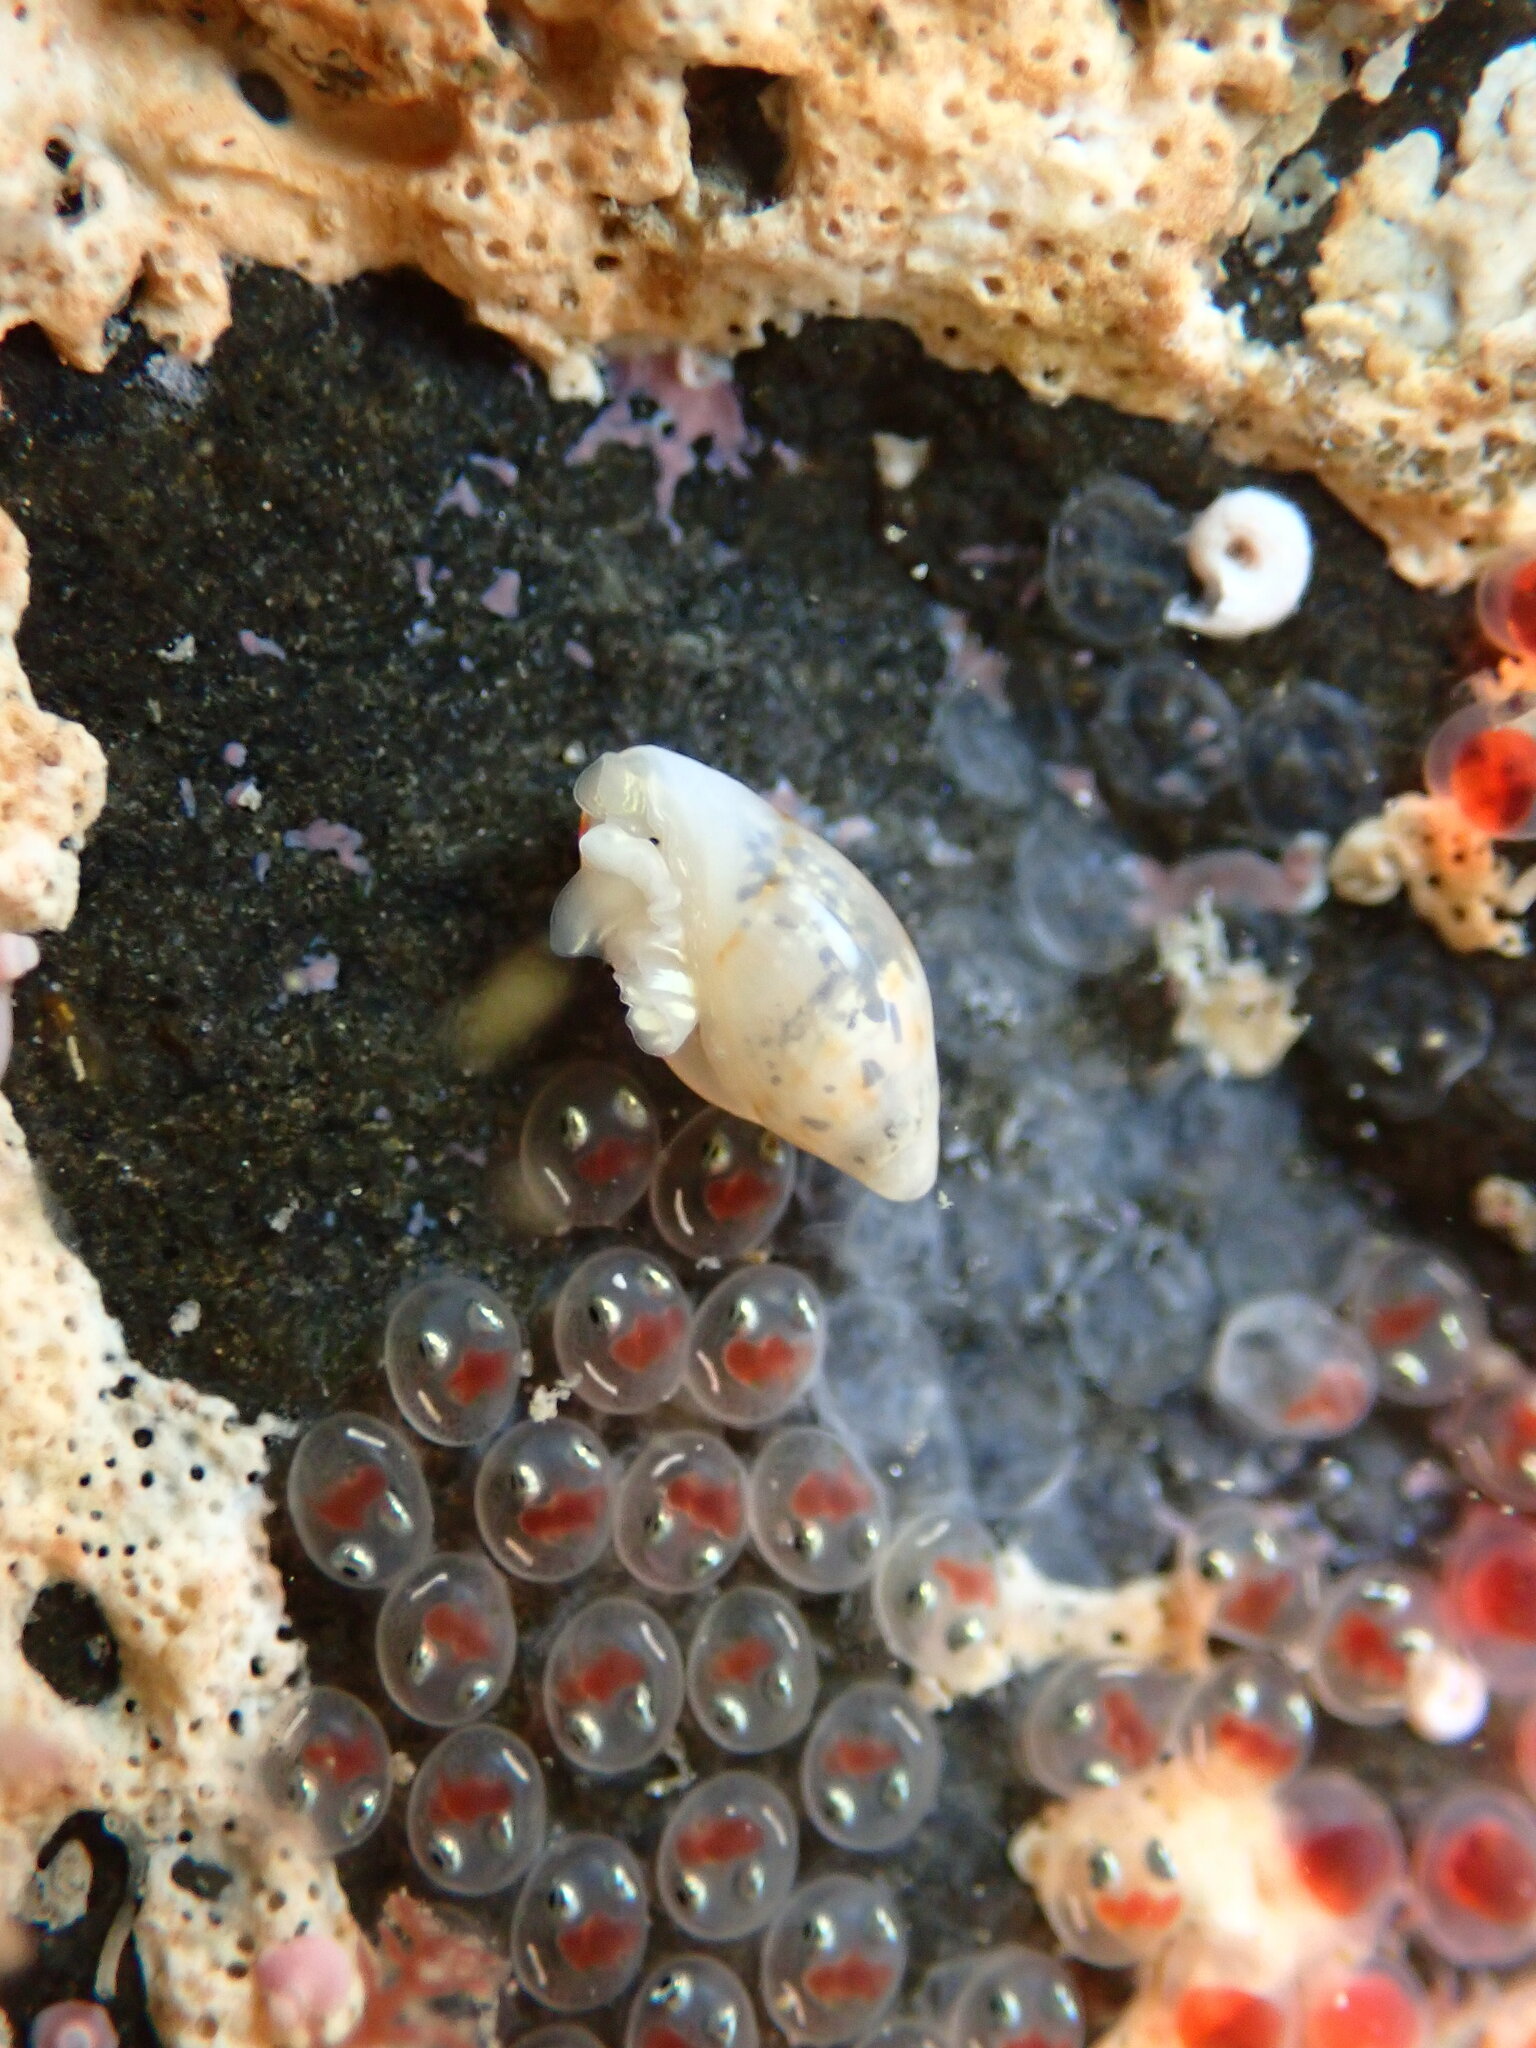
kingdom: Animalia
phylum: Mollusca
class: Gastropoda
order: Neogastropoda
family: Marginellidae
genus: Dentimargo
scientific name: Dentimargo cairoma
